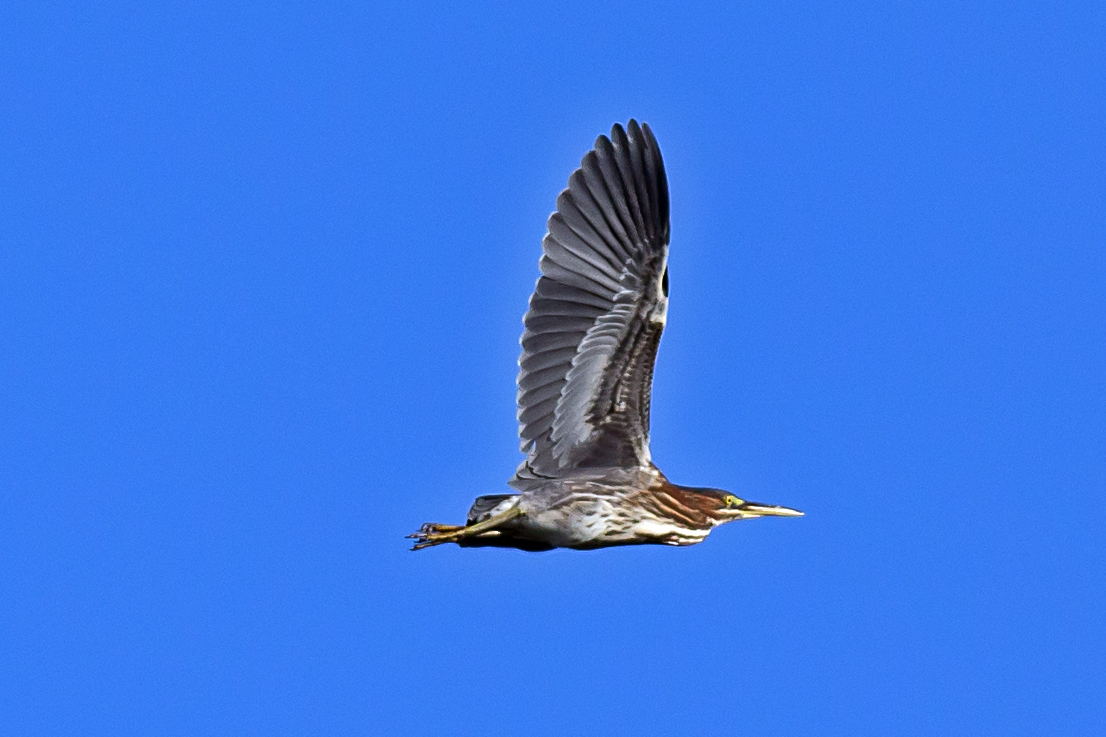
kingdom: Animalia
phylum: Chordata
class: Aves
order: Pelecaniformes
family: Ardeidae
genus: Butorides
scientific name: Butorides virescens
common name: Green heron
